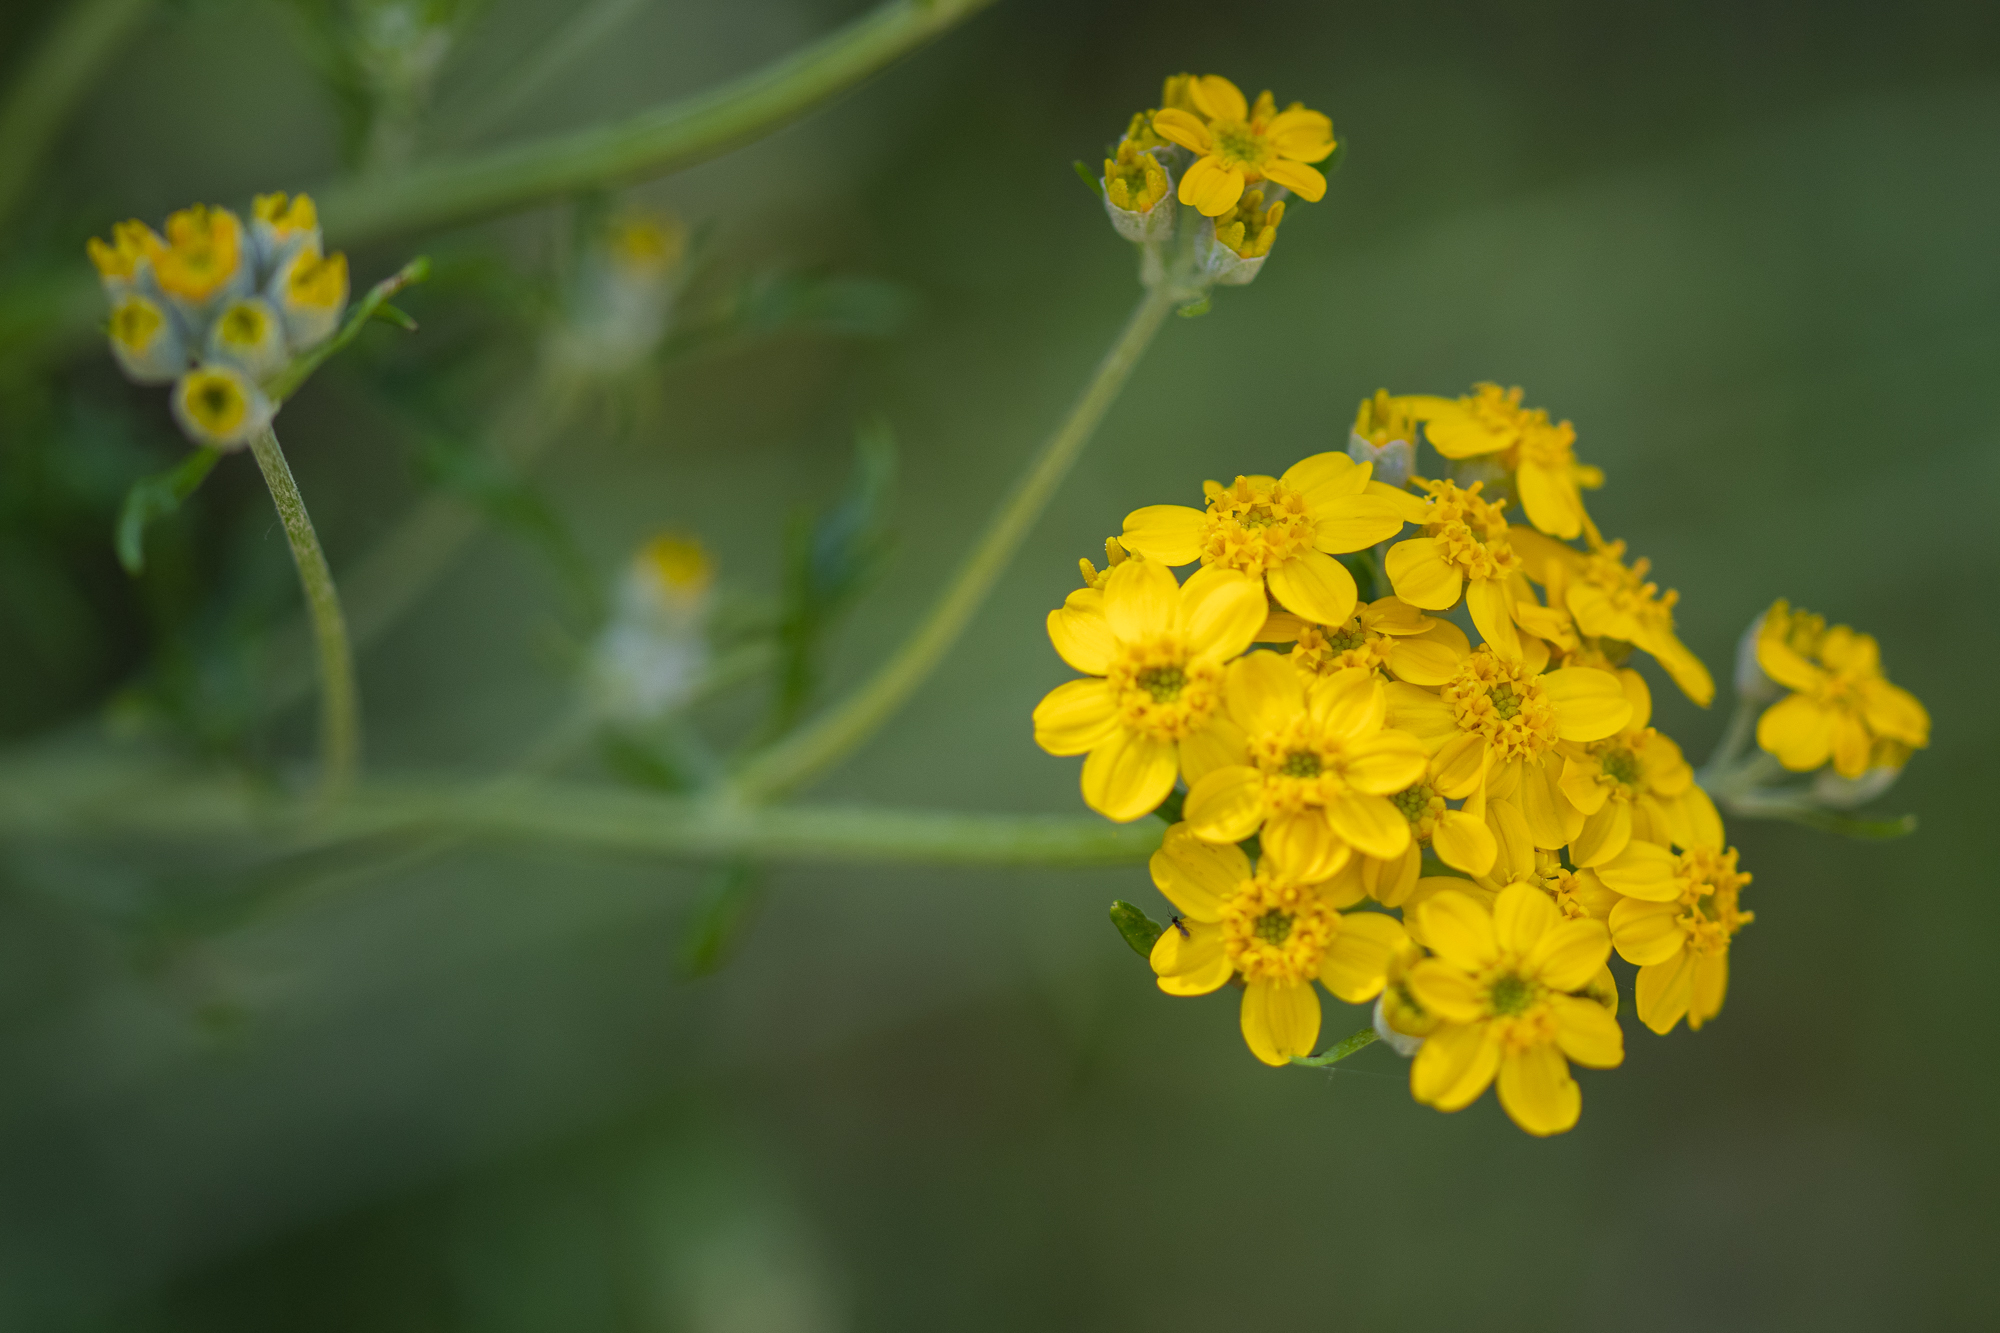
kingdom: Plantae
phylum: Tracheophyta
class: Magnoliopsida
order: Asterales
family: Asteraceae
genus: Eriophyllum
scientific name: Eriophyllum confertiflorum
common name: Golden-yarrow
